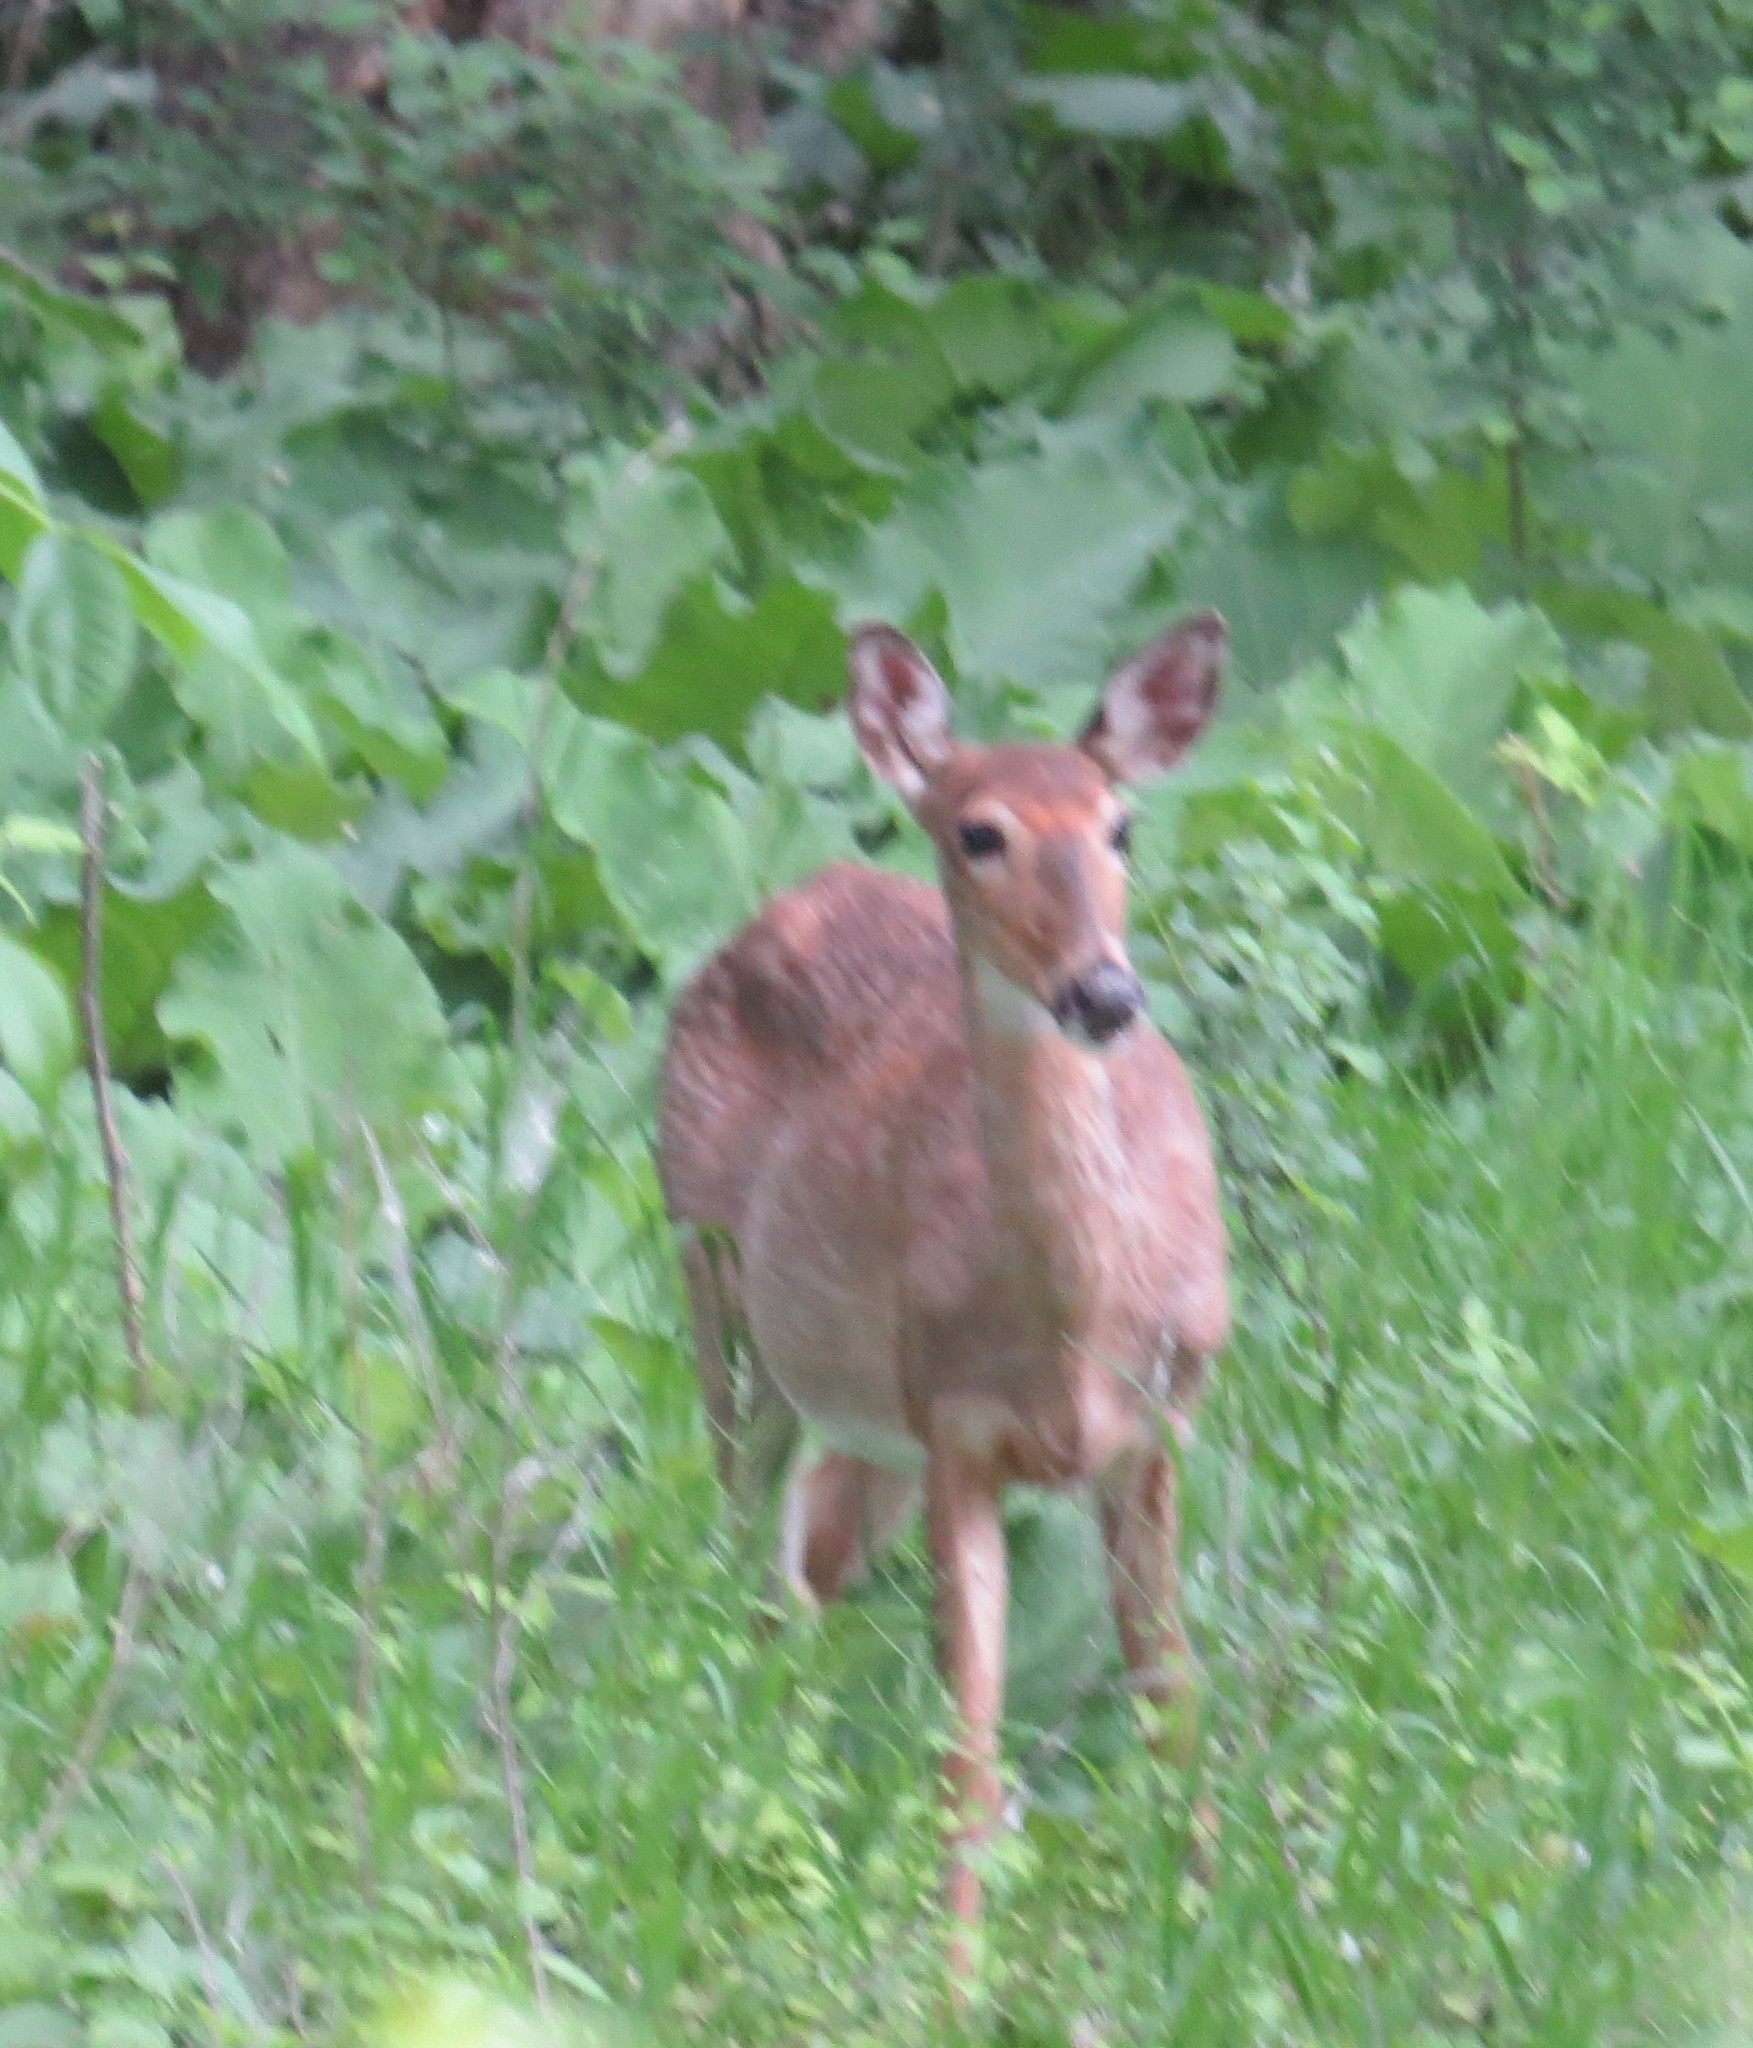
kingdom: Animalia
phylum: Chordata
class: Mammalia
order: Artiodactyla
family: Cervidae
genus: Odocoileus
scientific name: Odocoileus virginianus
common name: White-tailed deer
